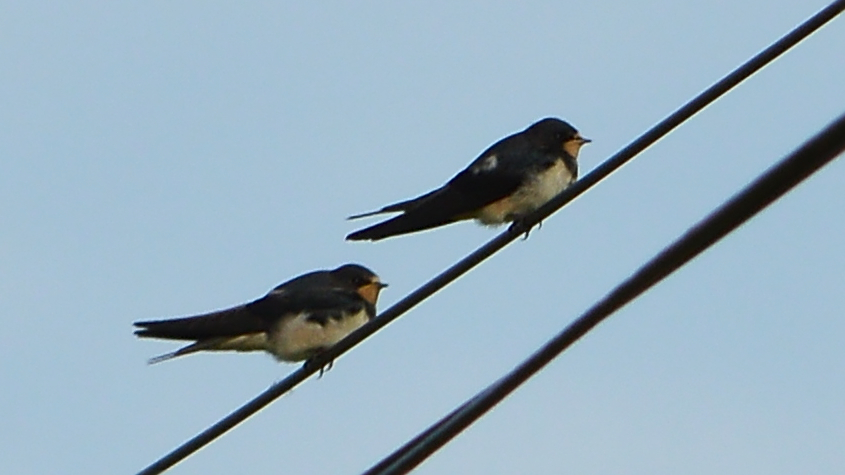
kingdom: Animalia
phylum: Chordata
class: Aves
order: Passeriformes
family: Hirundinidae
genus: Hirundo
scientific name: Hirundo rustica
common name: Barn swallow
